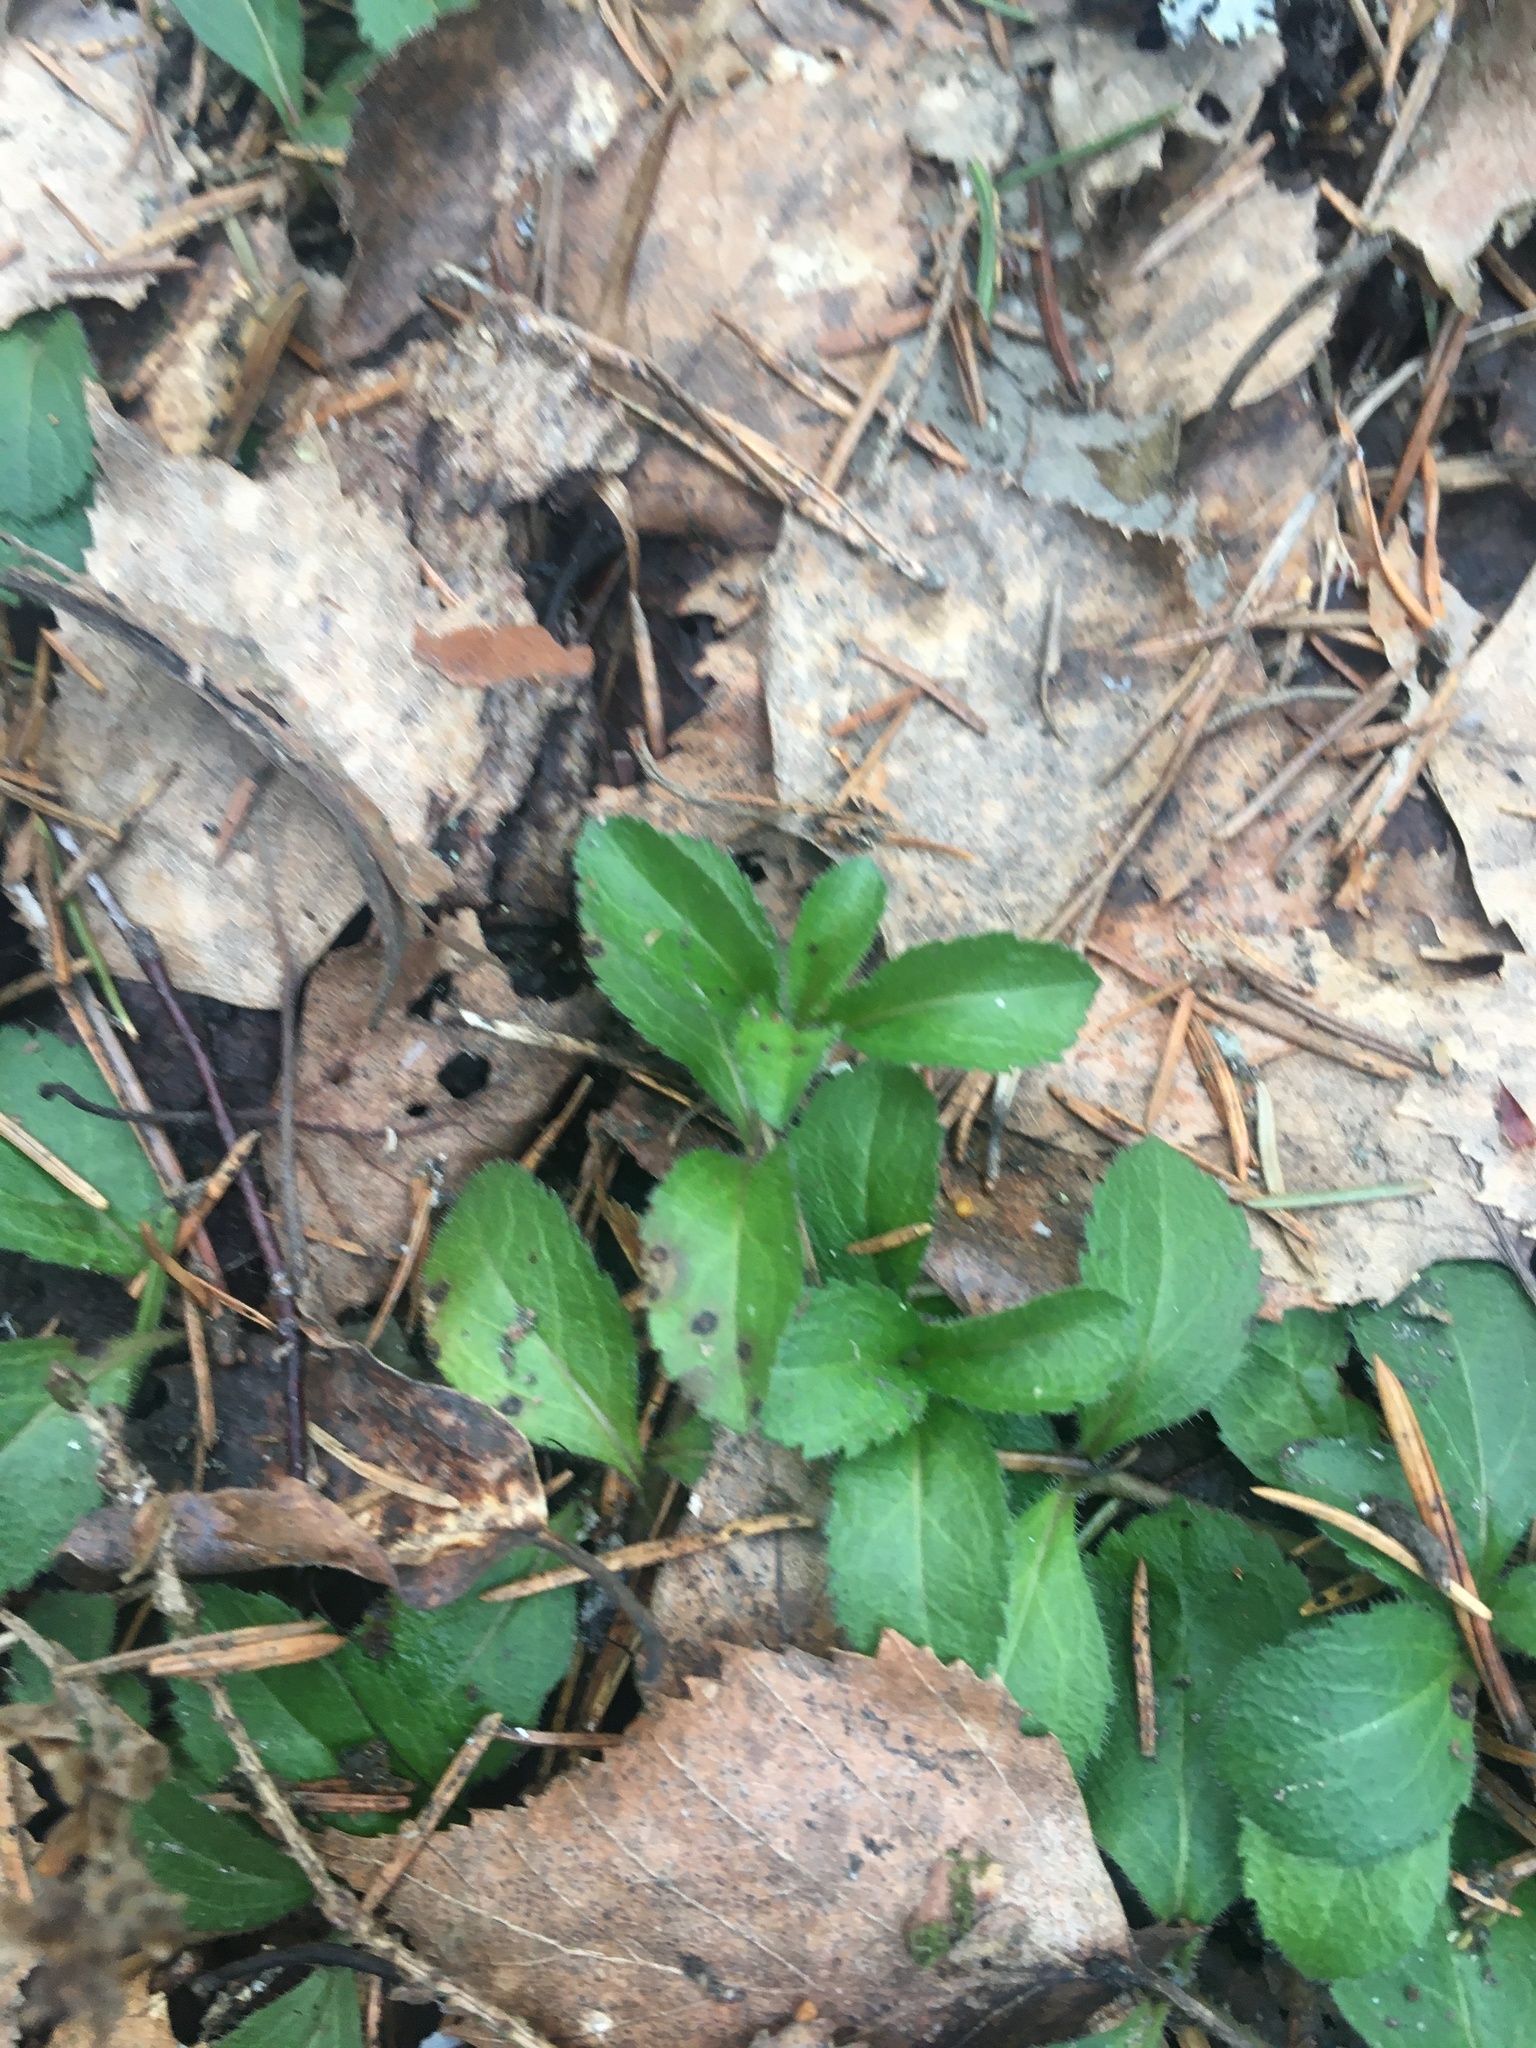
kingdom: Plantae
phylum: Tracheophyta
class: Magnoliopsida
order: Lamiales
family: Plantaginaceae
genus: Veronica
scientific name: Veronica officinalis
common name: Common speedwell
